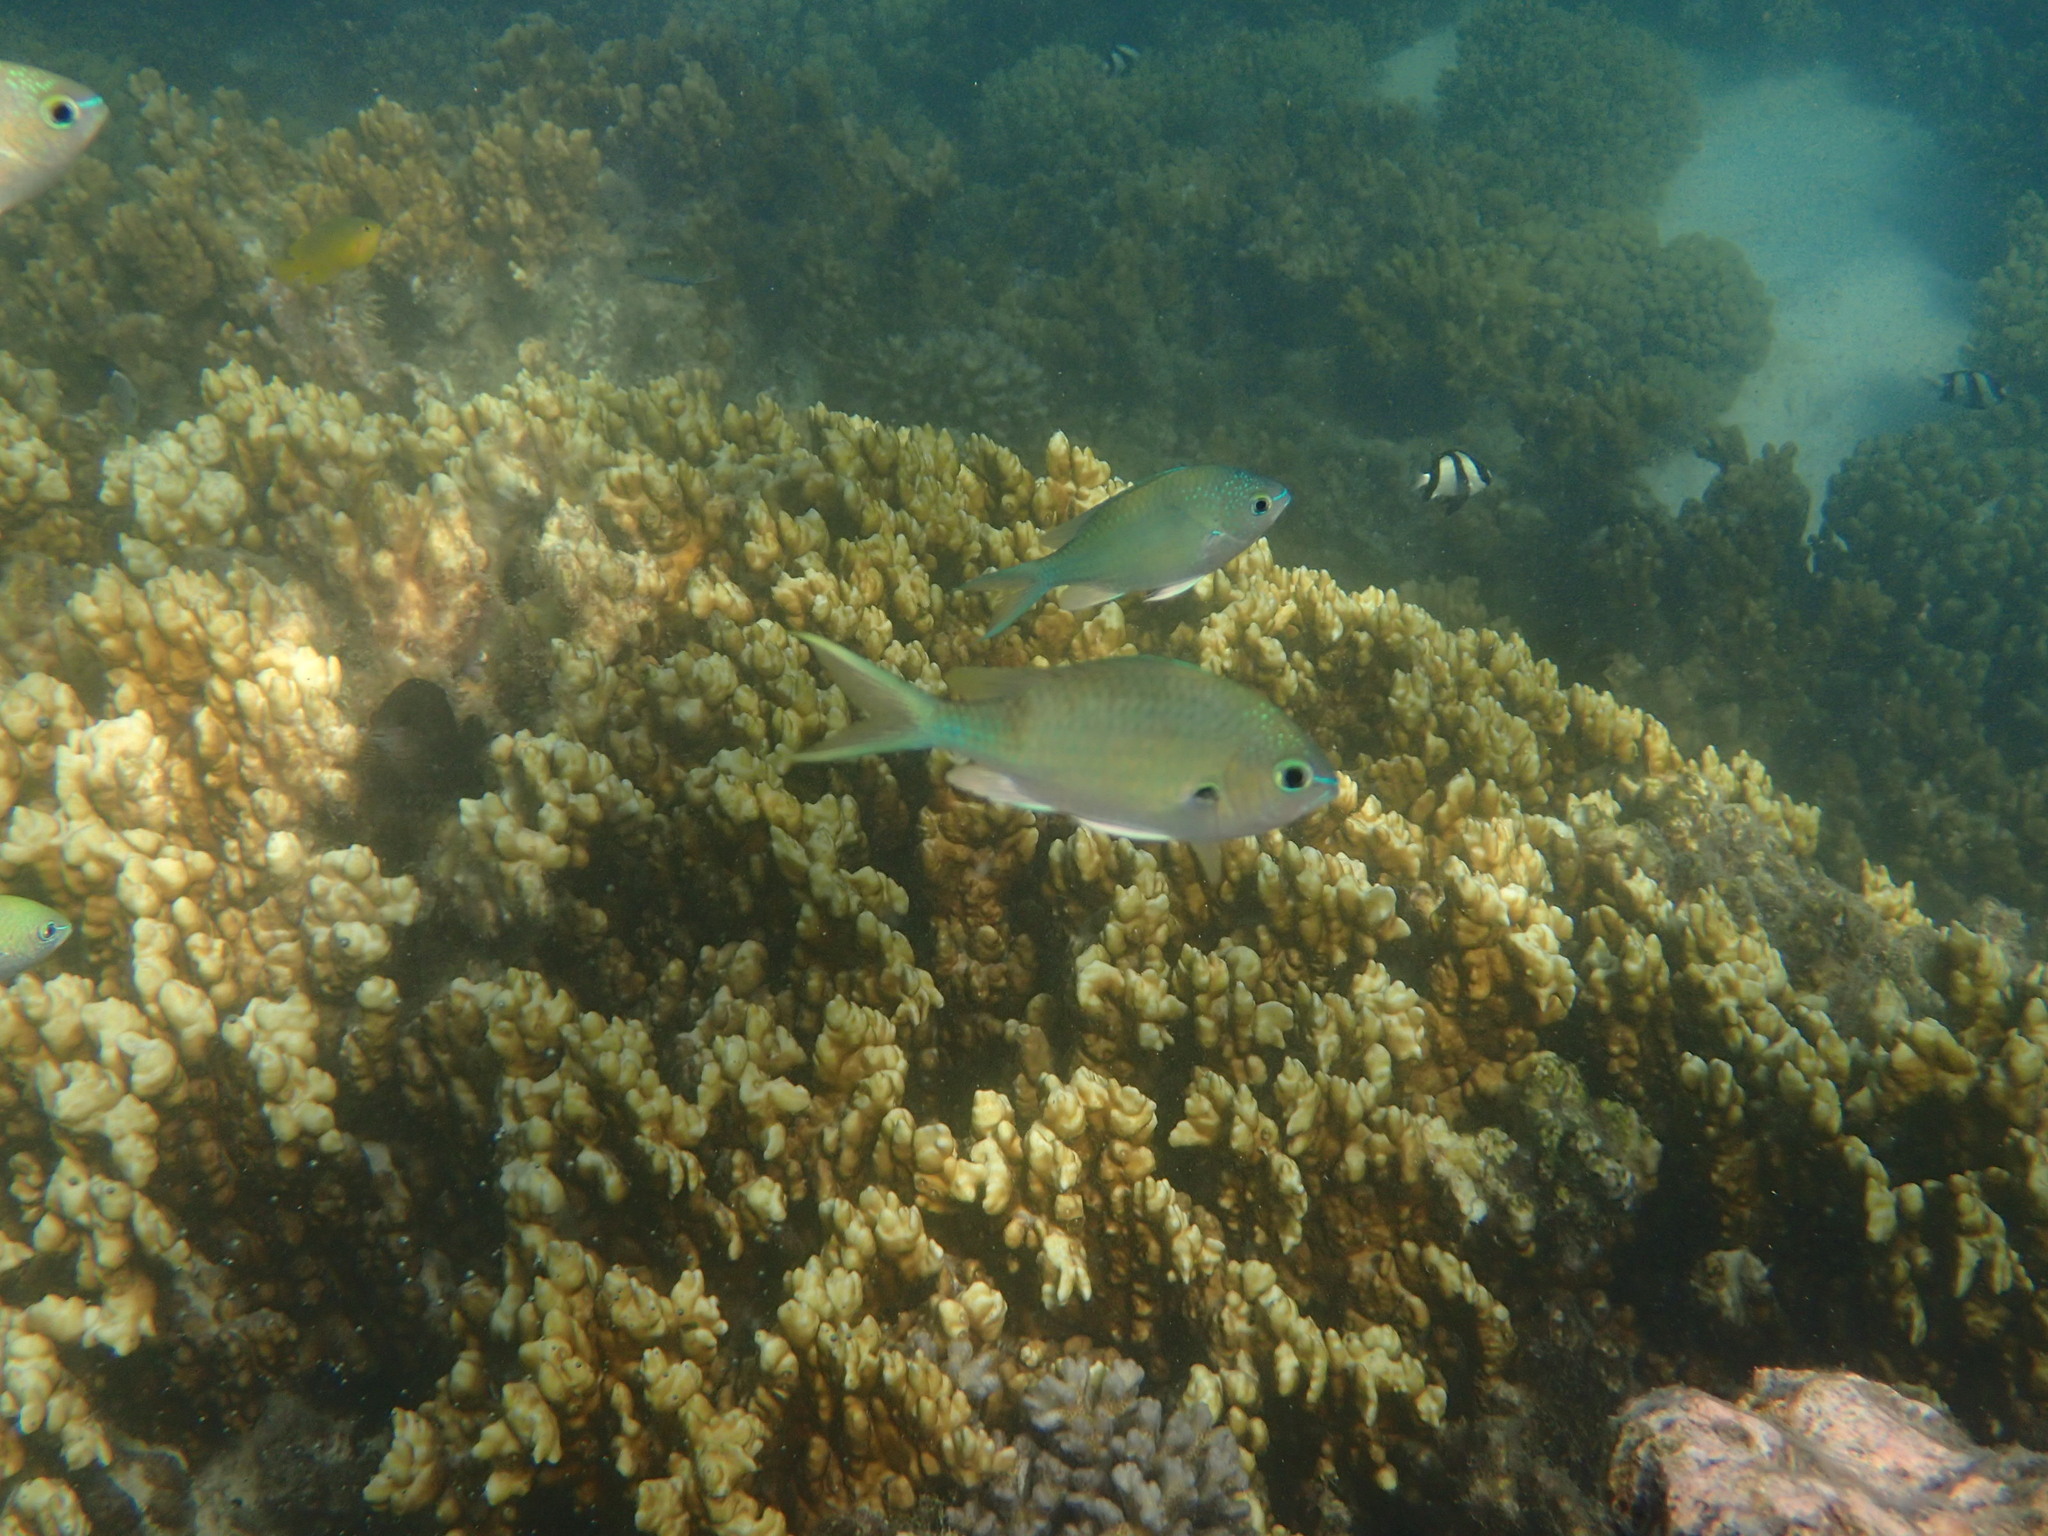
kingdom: Animalia
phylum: Chordata
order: Perciformes
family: Pomacentridae
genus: Chromis
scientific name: Chromis atripectoralis
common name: Black-axil chromis
